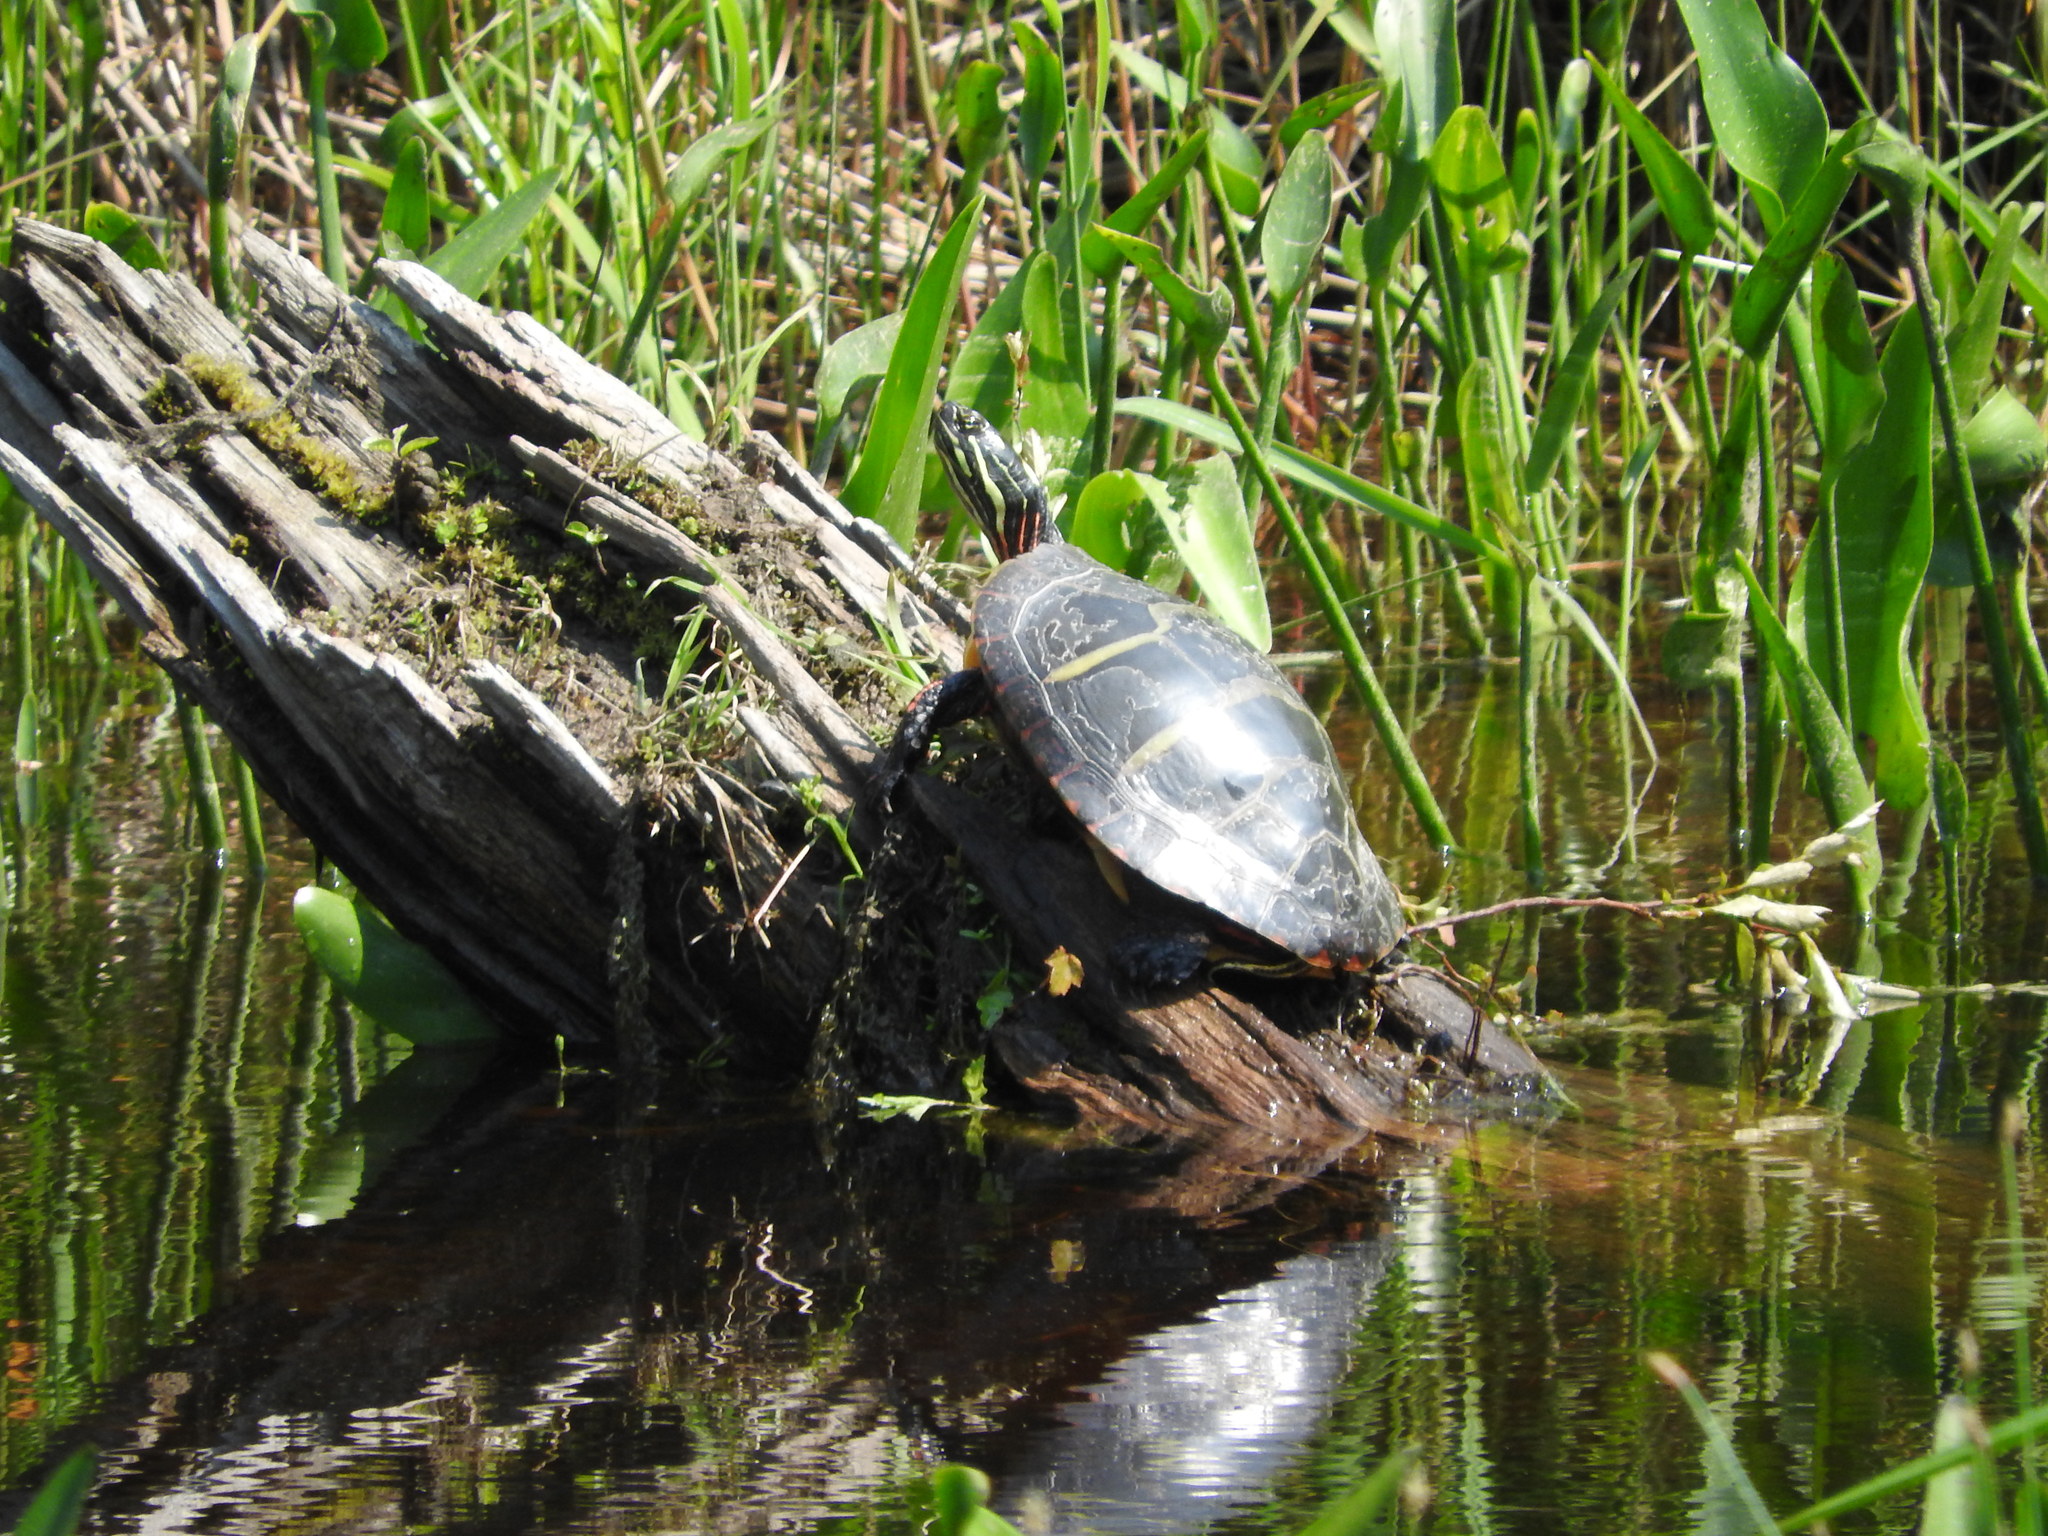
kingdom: Animalia
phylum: Chordata
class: Testudines
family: Emydidae
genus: Chrysemys
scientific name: Chrysemys picta
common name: Painted turtle
